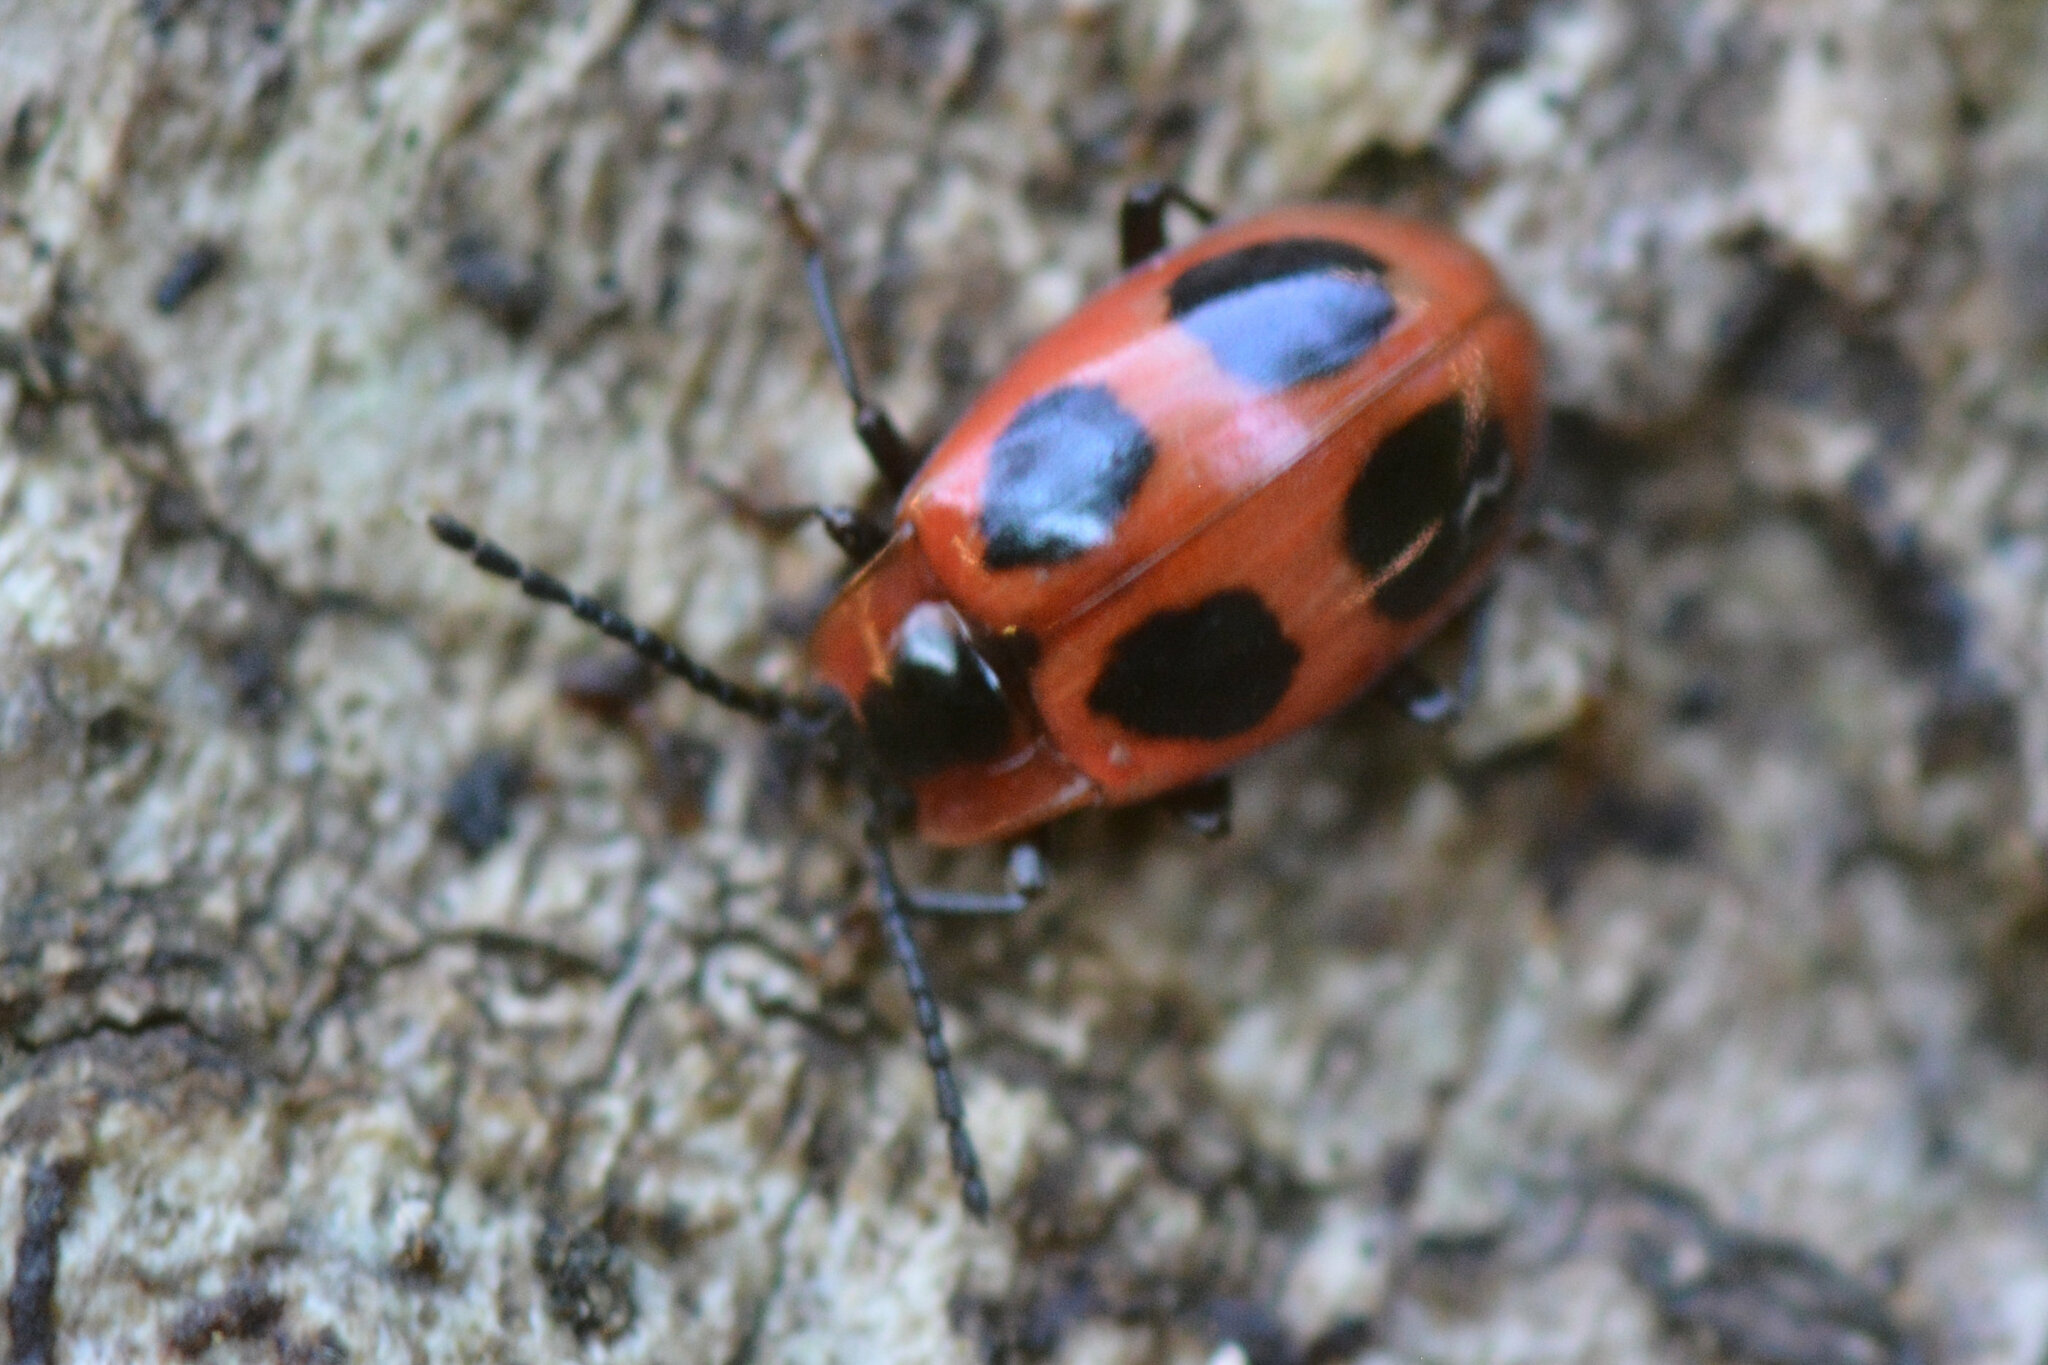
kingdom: Animalia
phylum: Arthropoda
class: Insecta
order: Coleoptera
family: Endomychidae
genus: Endomychus
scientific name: Endomychus coccineus
